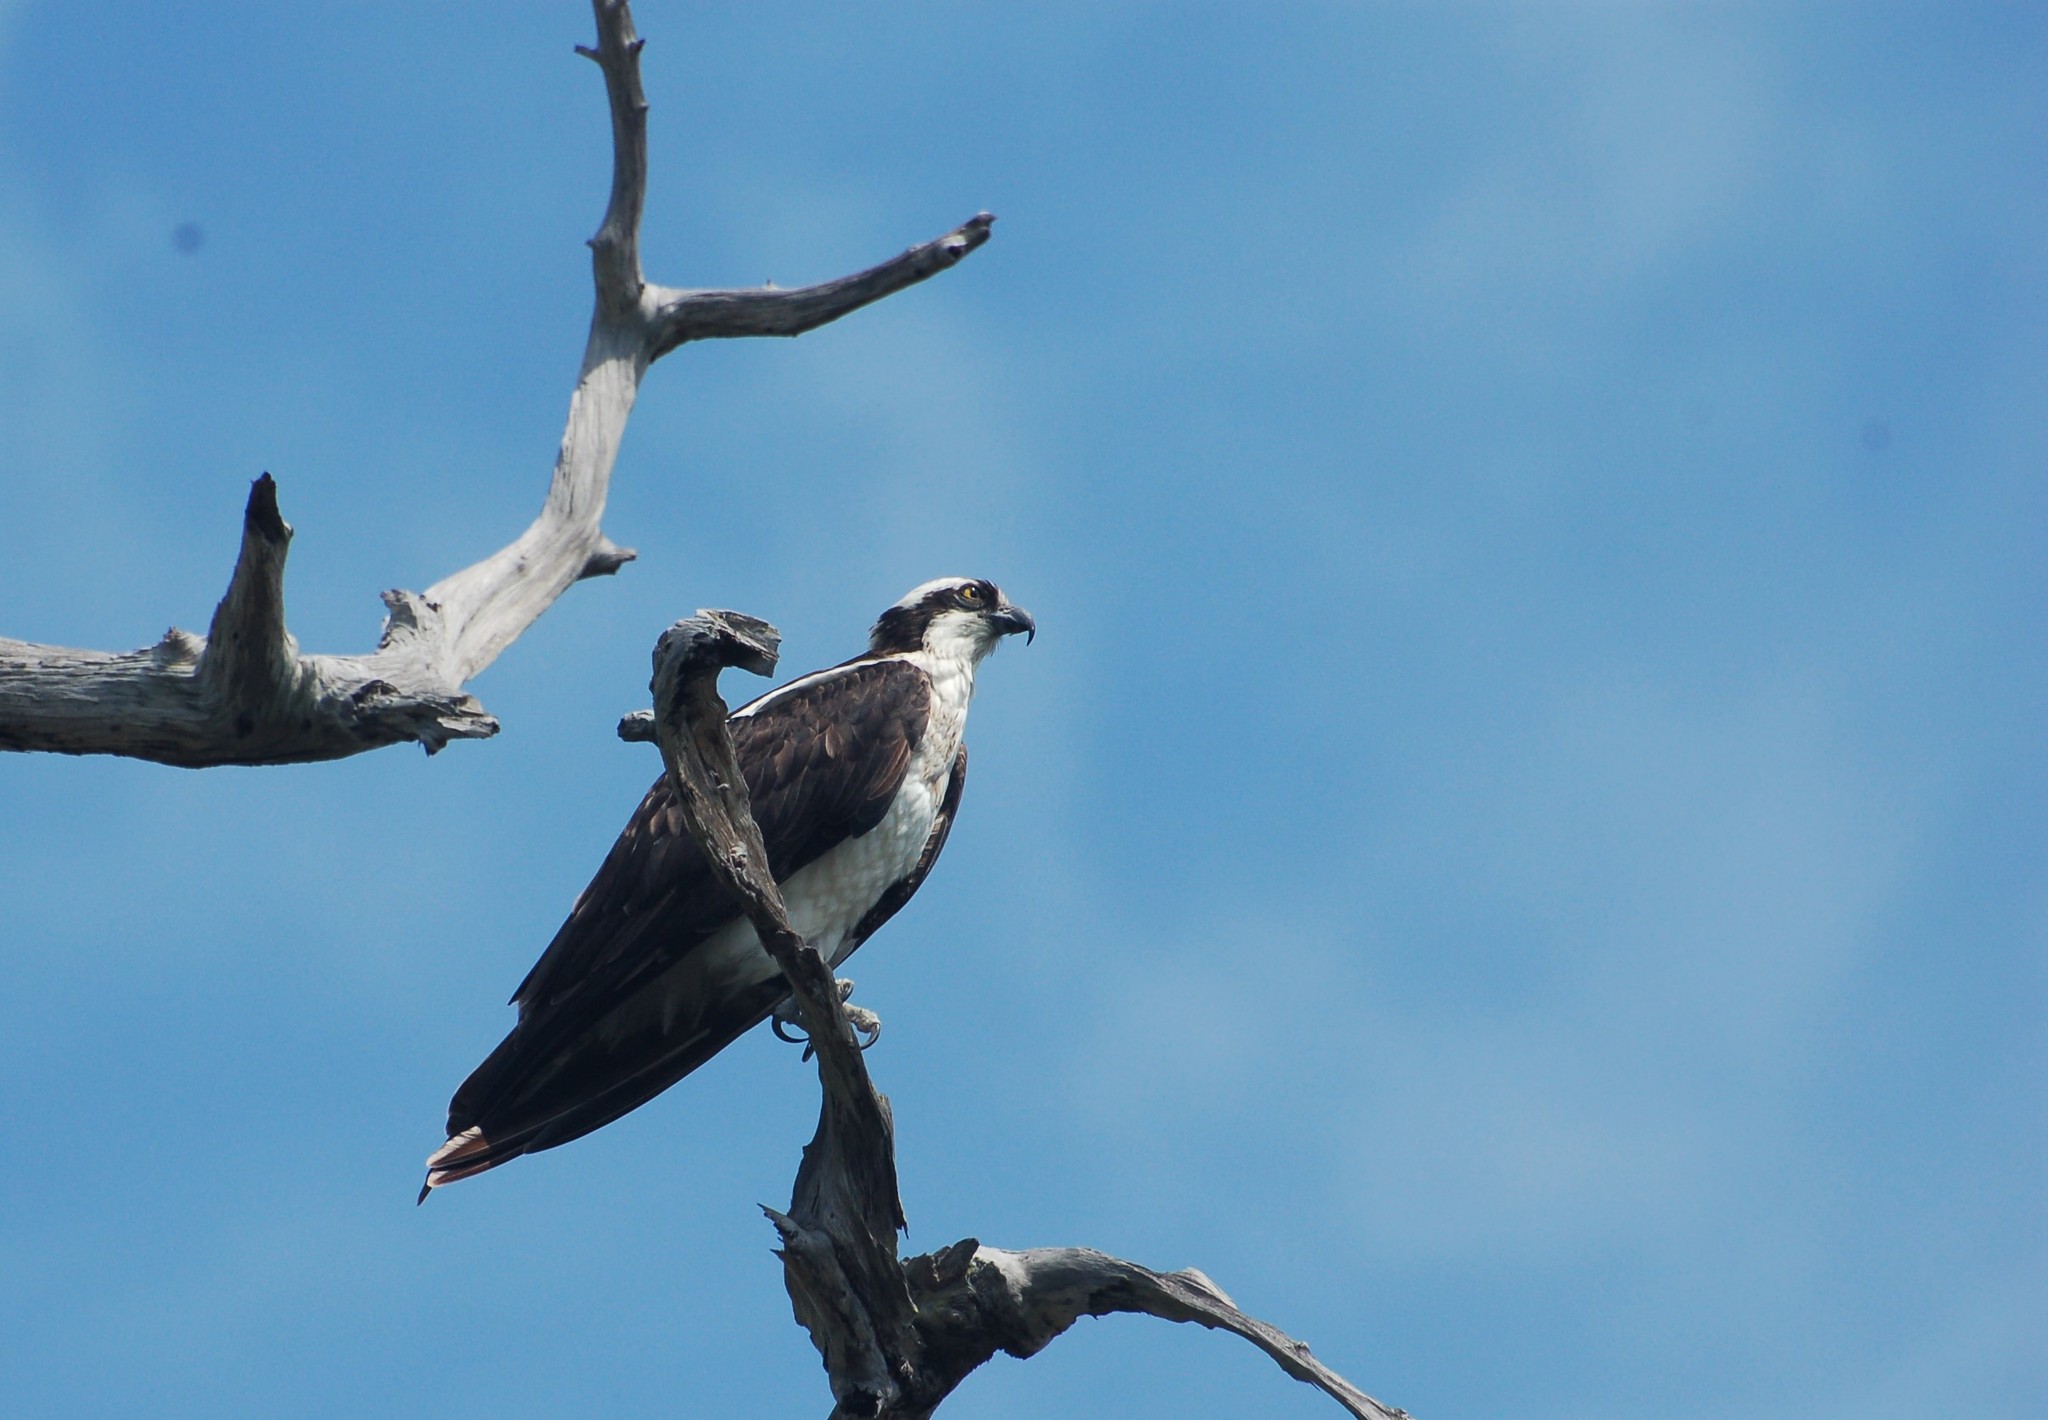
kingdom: Animalia
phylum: Chordata
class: Aves
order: Accipitriformes
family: Pandionidae
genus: Pandion
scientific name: Pandion haliaetus
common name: Osprey
